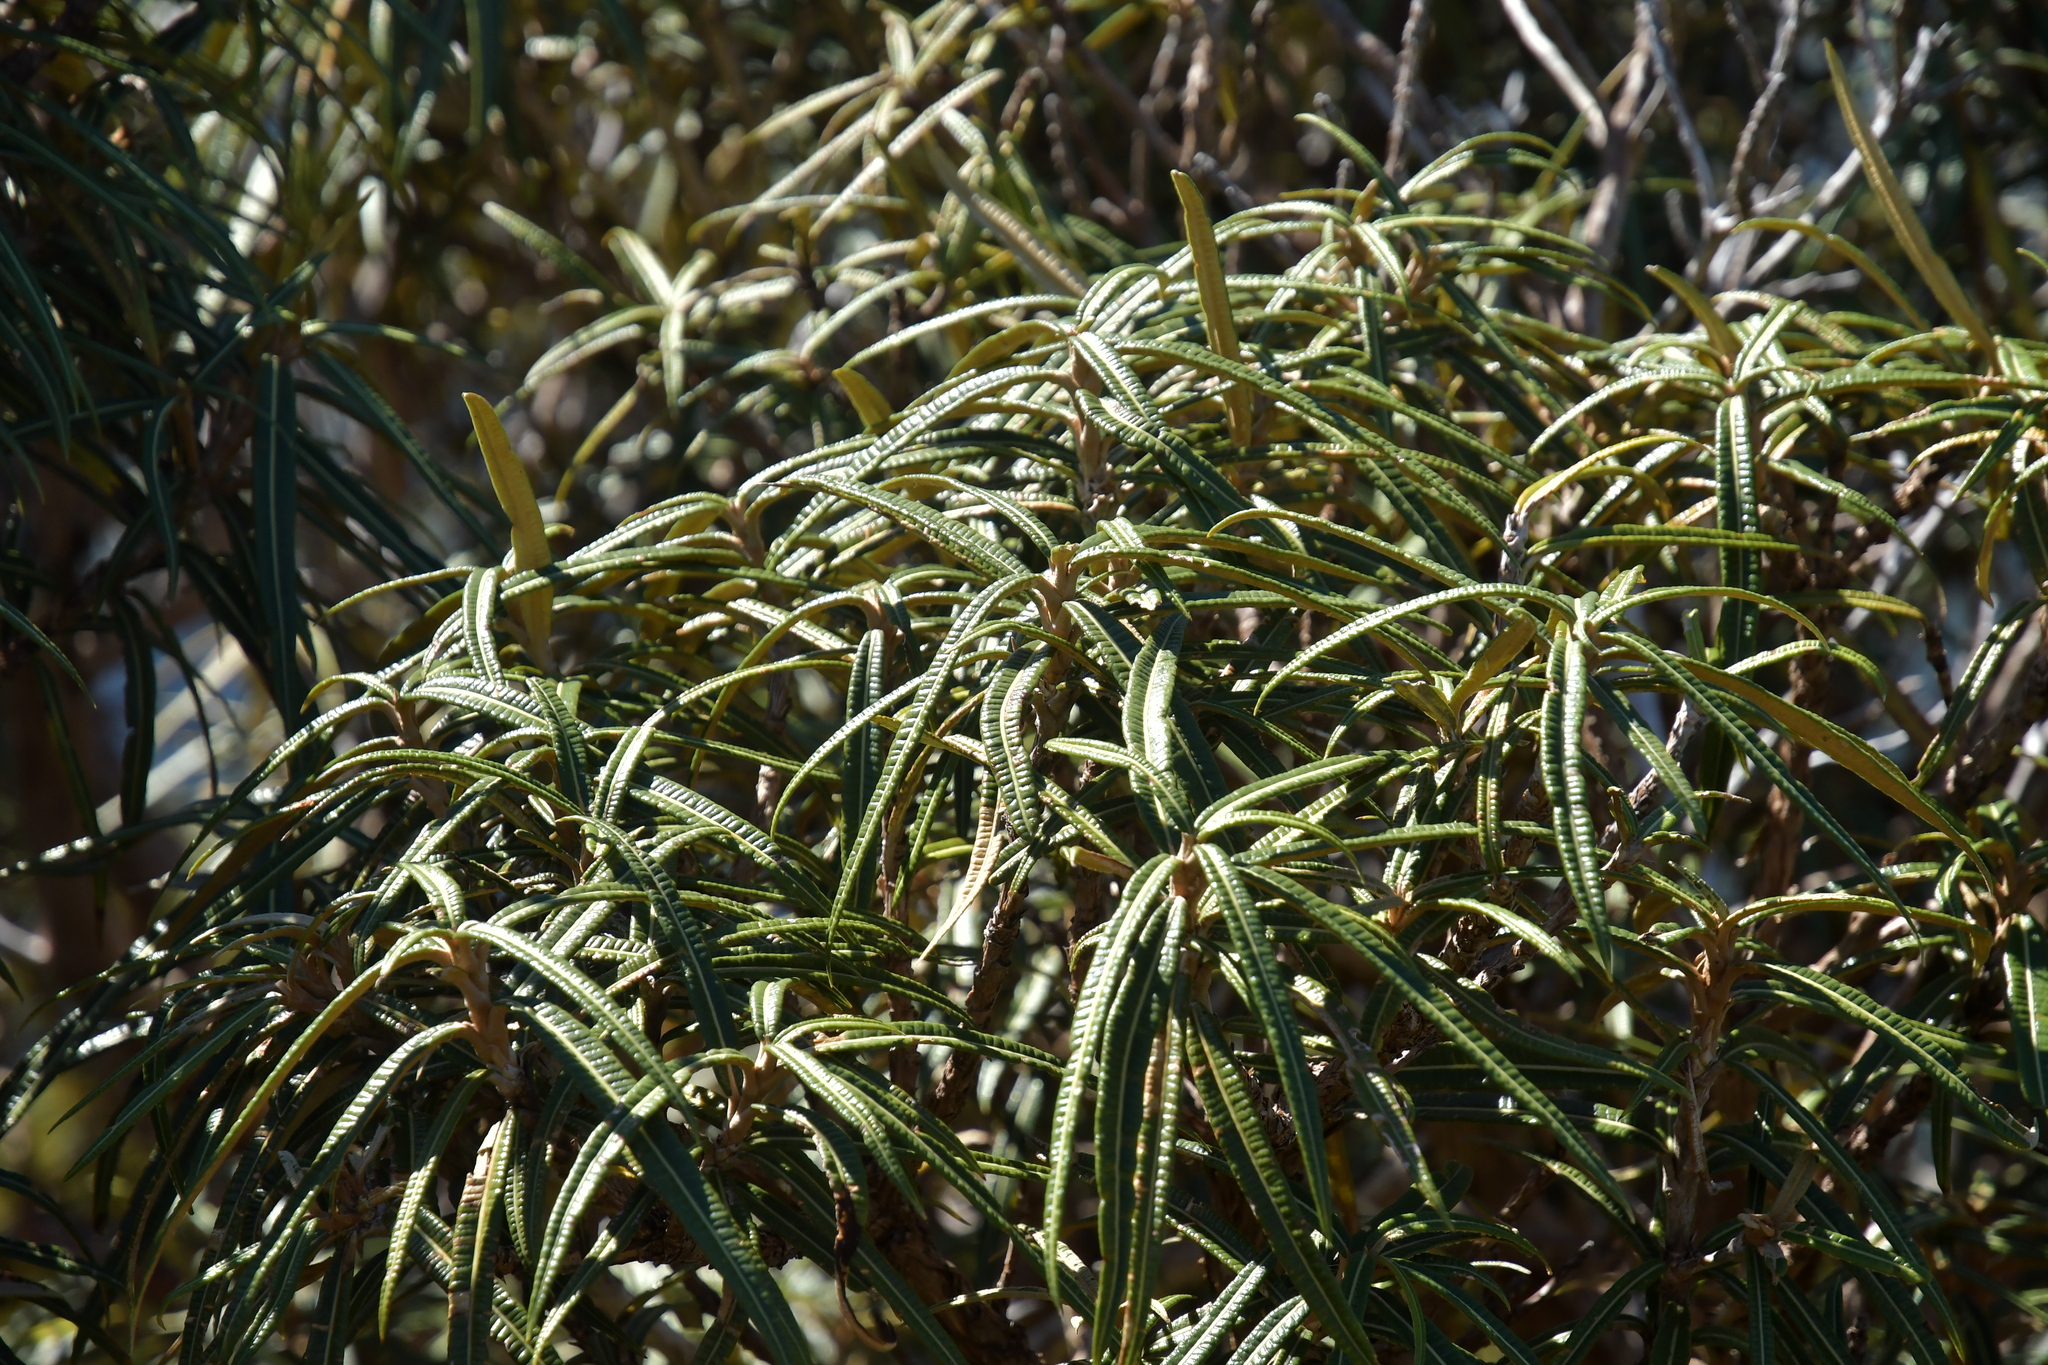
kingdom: Plantae
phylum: Tracheophyta
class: Magnoliopsida
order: Asterales
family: Asteraceae
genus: Olearia
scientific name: Olearia lacunosa
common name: Lancewood tree daisy
